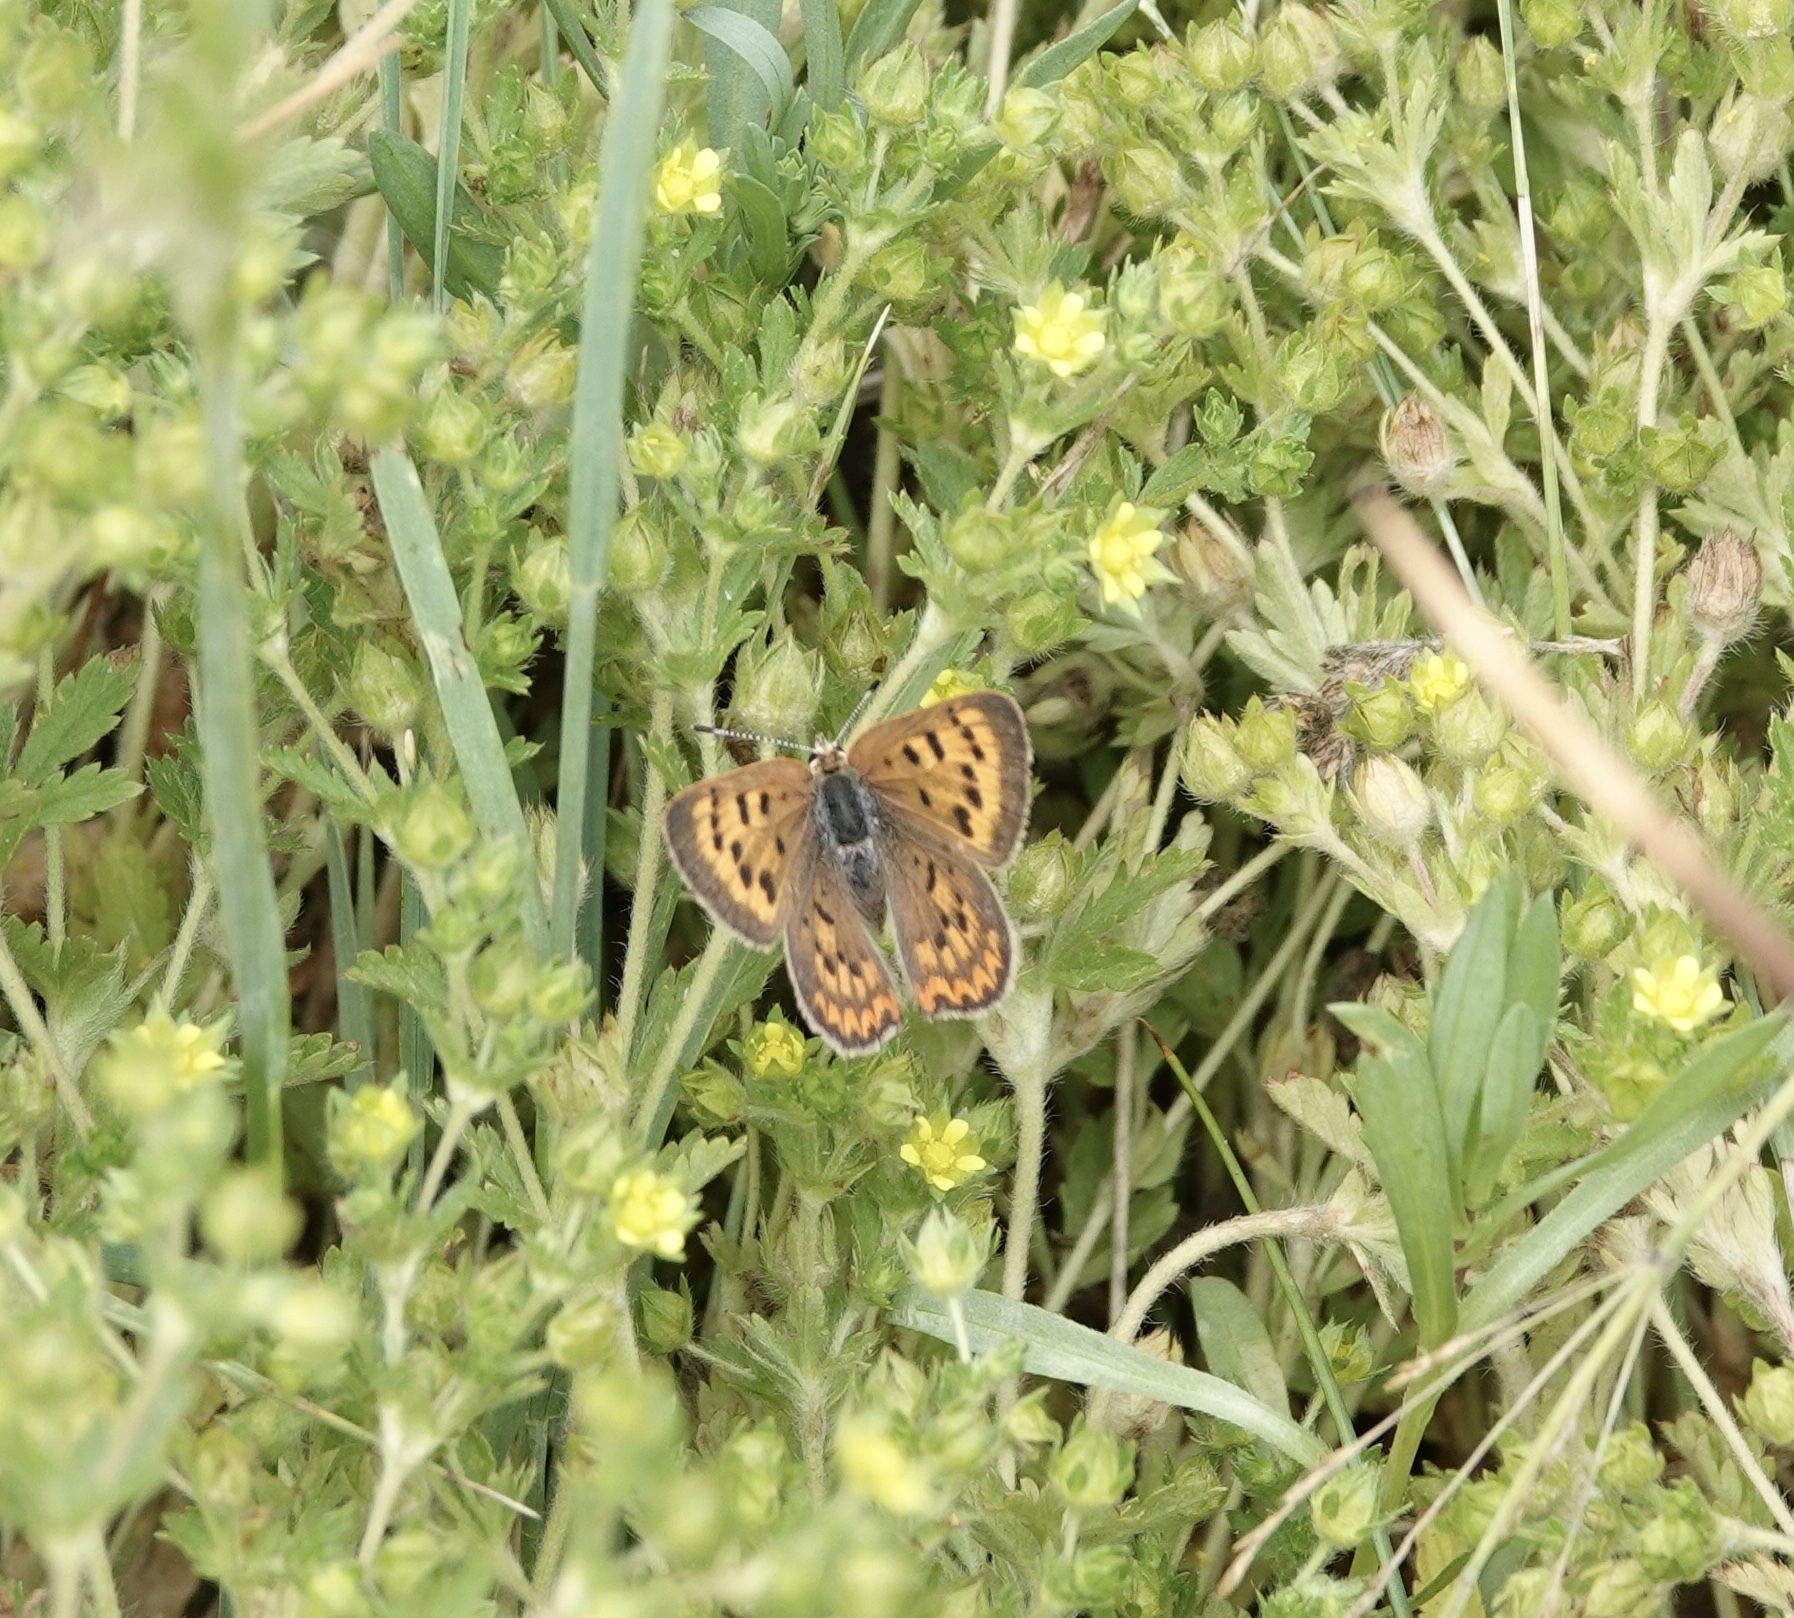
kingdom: Animalia
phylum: Arthropoda
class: Insecta
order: Lepidoptera
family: Lycaenidae
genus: Tharsalea
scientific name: Tharsalea helloides
